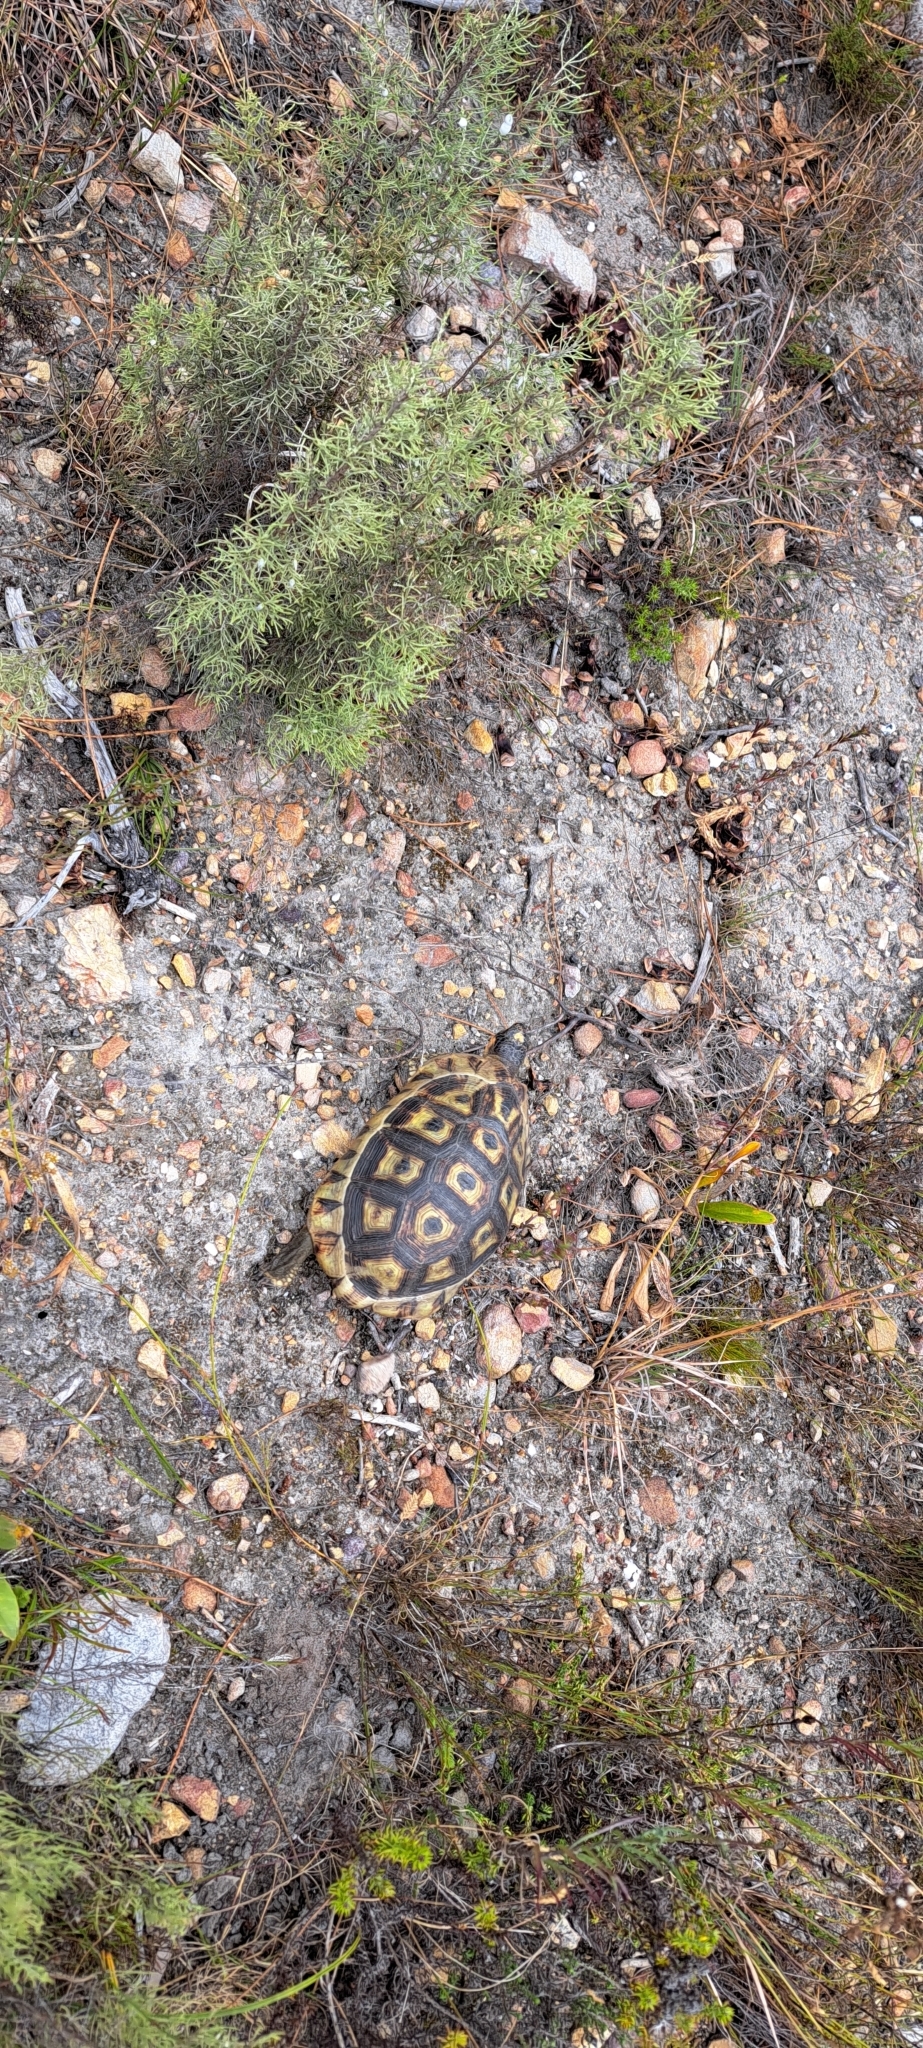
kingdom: Animalia
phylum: Chordata
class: Testudines
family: Testudinidae
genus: Chersina
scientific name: Chersina angulata
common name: South african bowsprit tortoise
